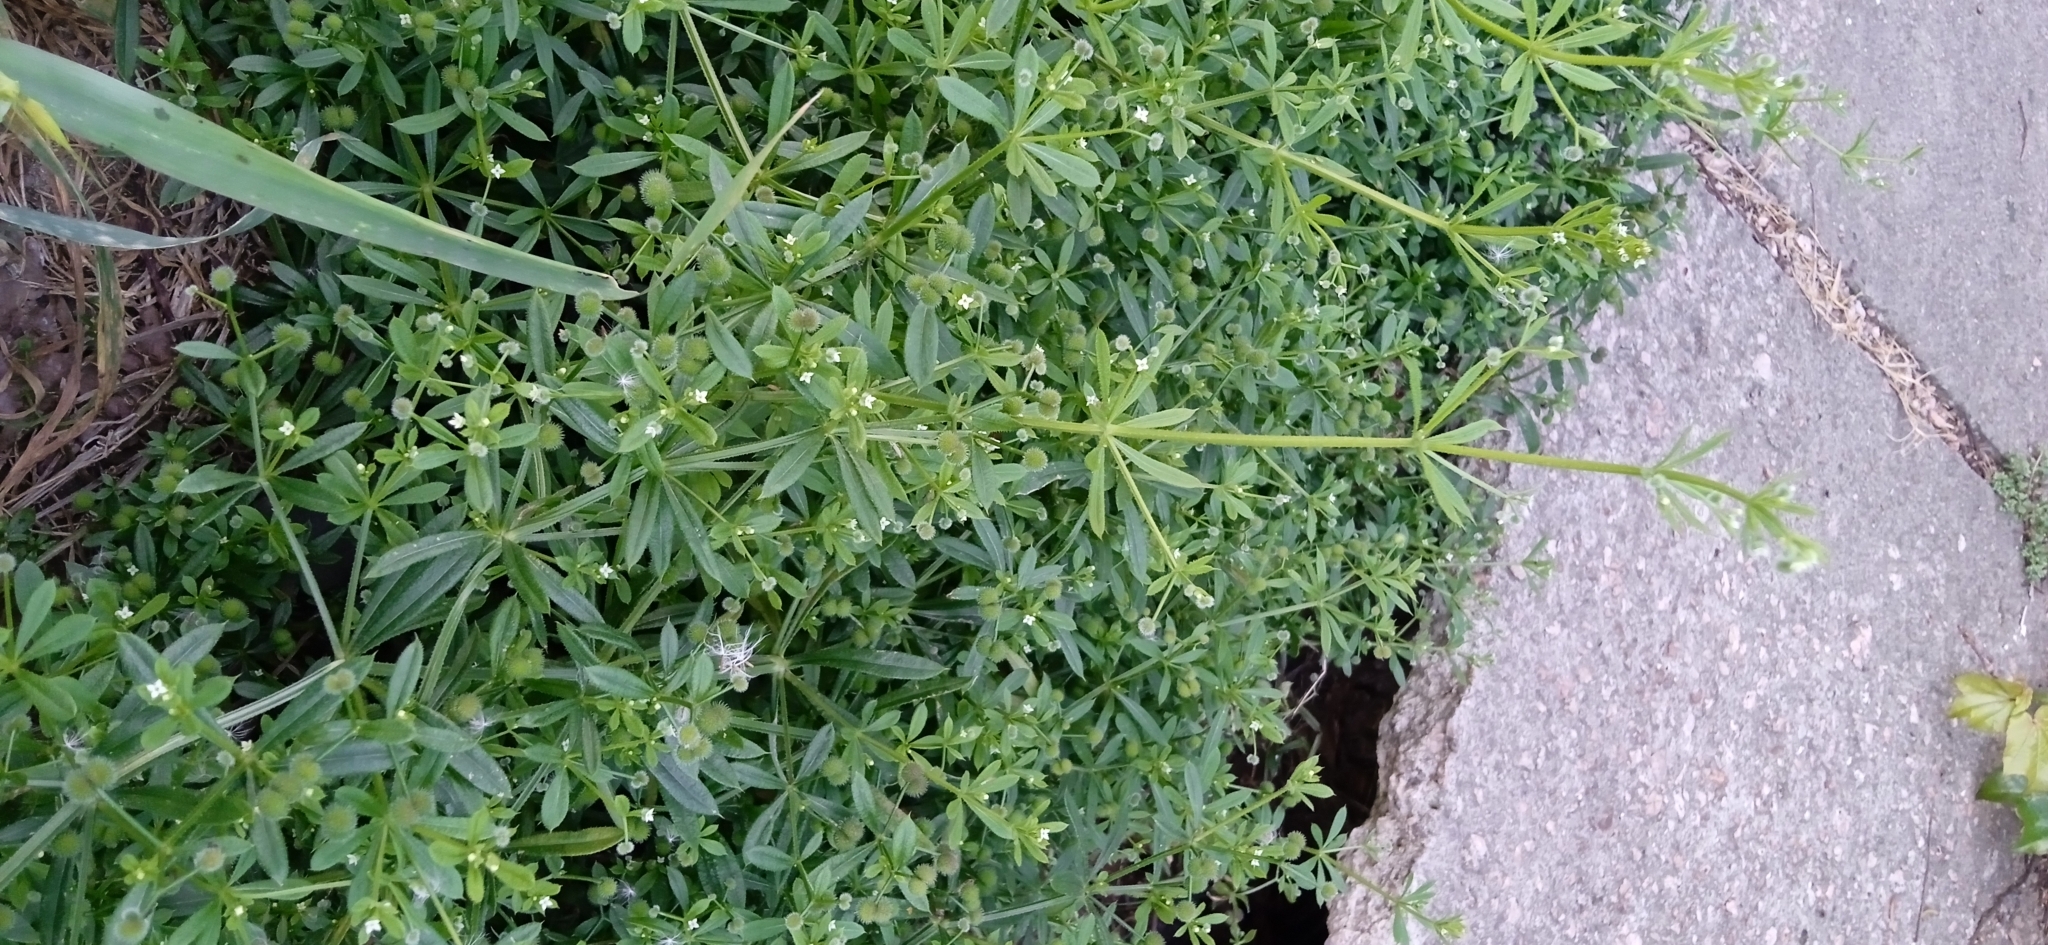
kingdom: Plantae
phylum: Tracheophyta
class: Magnoliopsida
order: Gentianales
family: Rubiaceae
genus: Galium
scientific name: Galium aparine
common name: Cleavers
